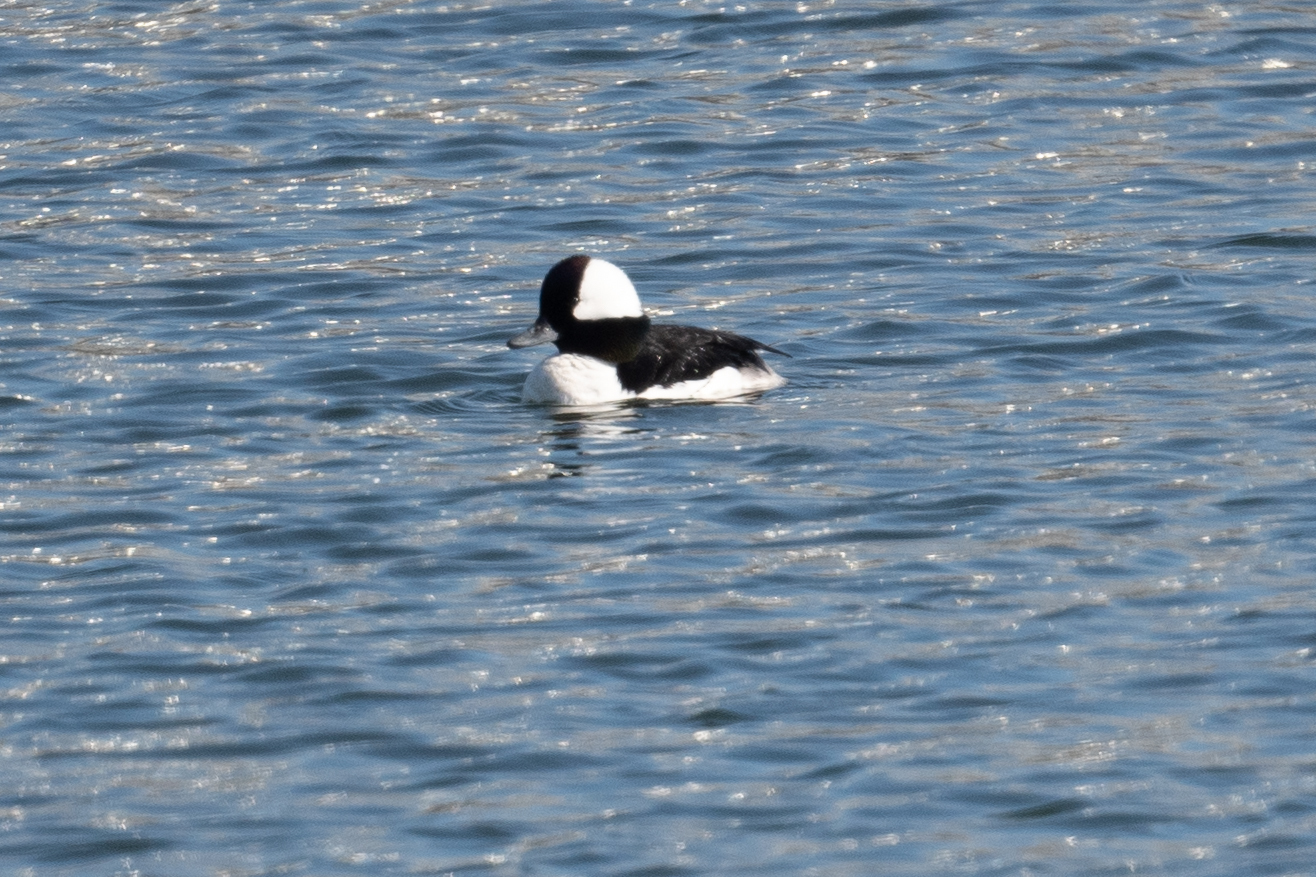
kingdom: Animalia
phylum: Chordata
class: Aves
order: Anseriformes
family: Anatidae
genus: Bucephala
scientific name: Bucephala albeola
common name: Bufflehead
